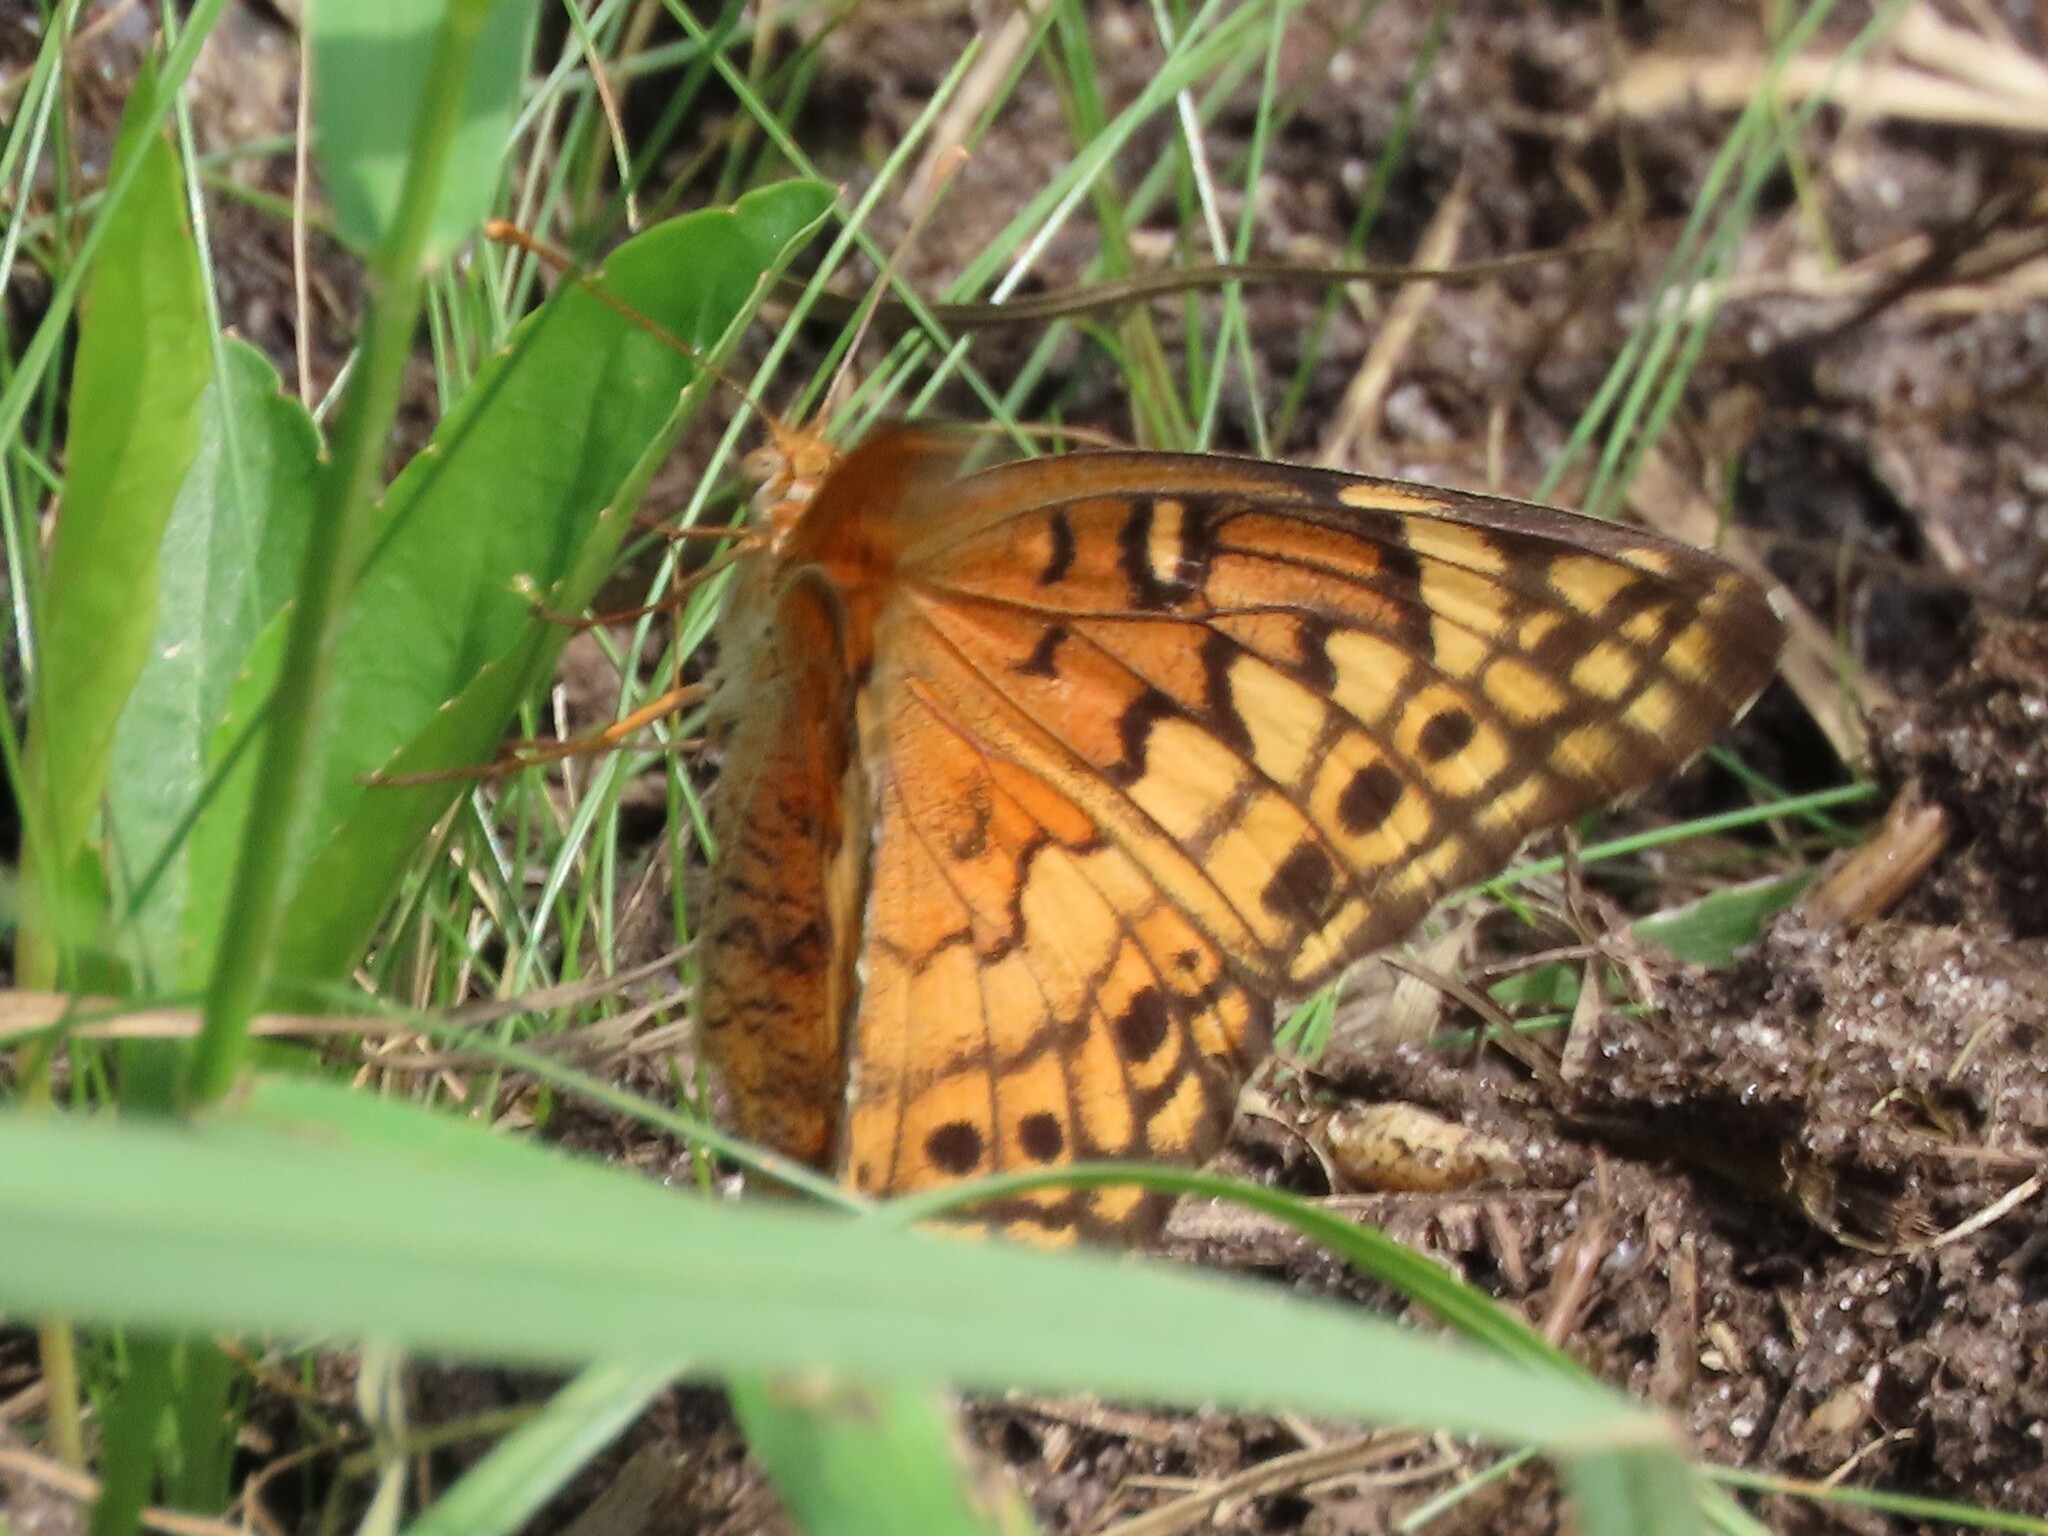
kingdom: Animalia
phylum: Arthropoda
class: Insecta
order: Lepidoptera
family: Nymphalidae
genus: Euptoieta
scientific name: Euptoieta claudia
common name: Variegated fritillary
